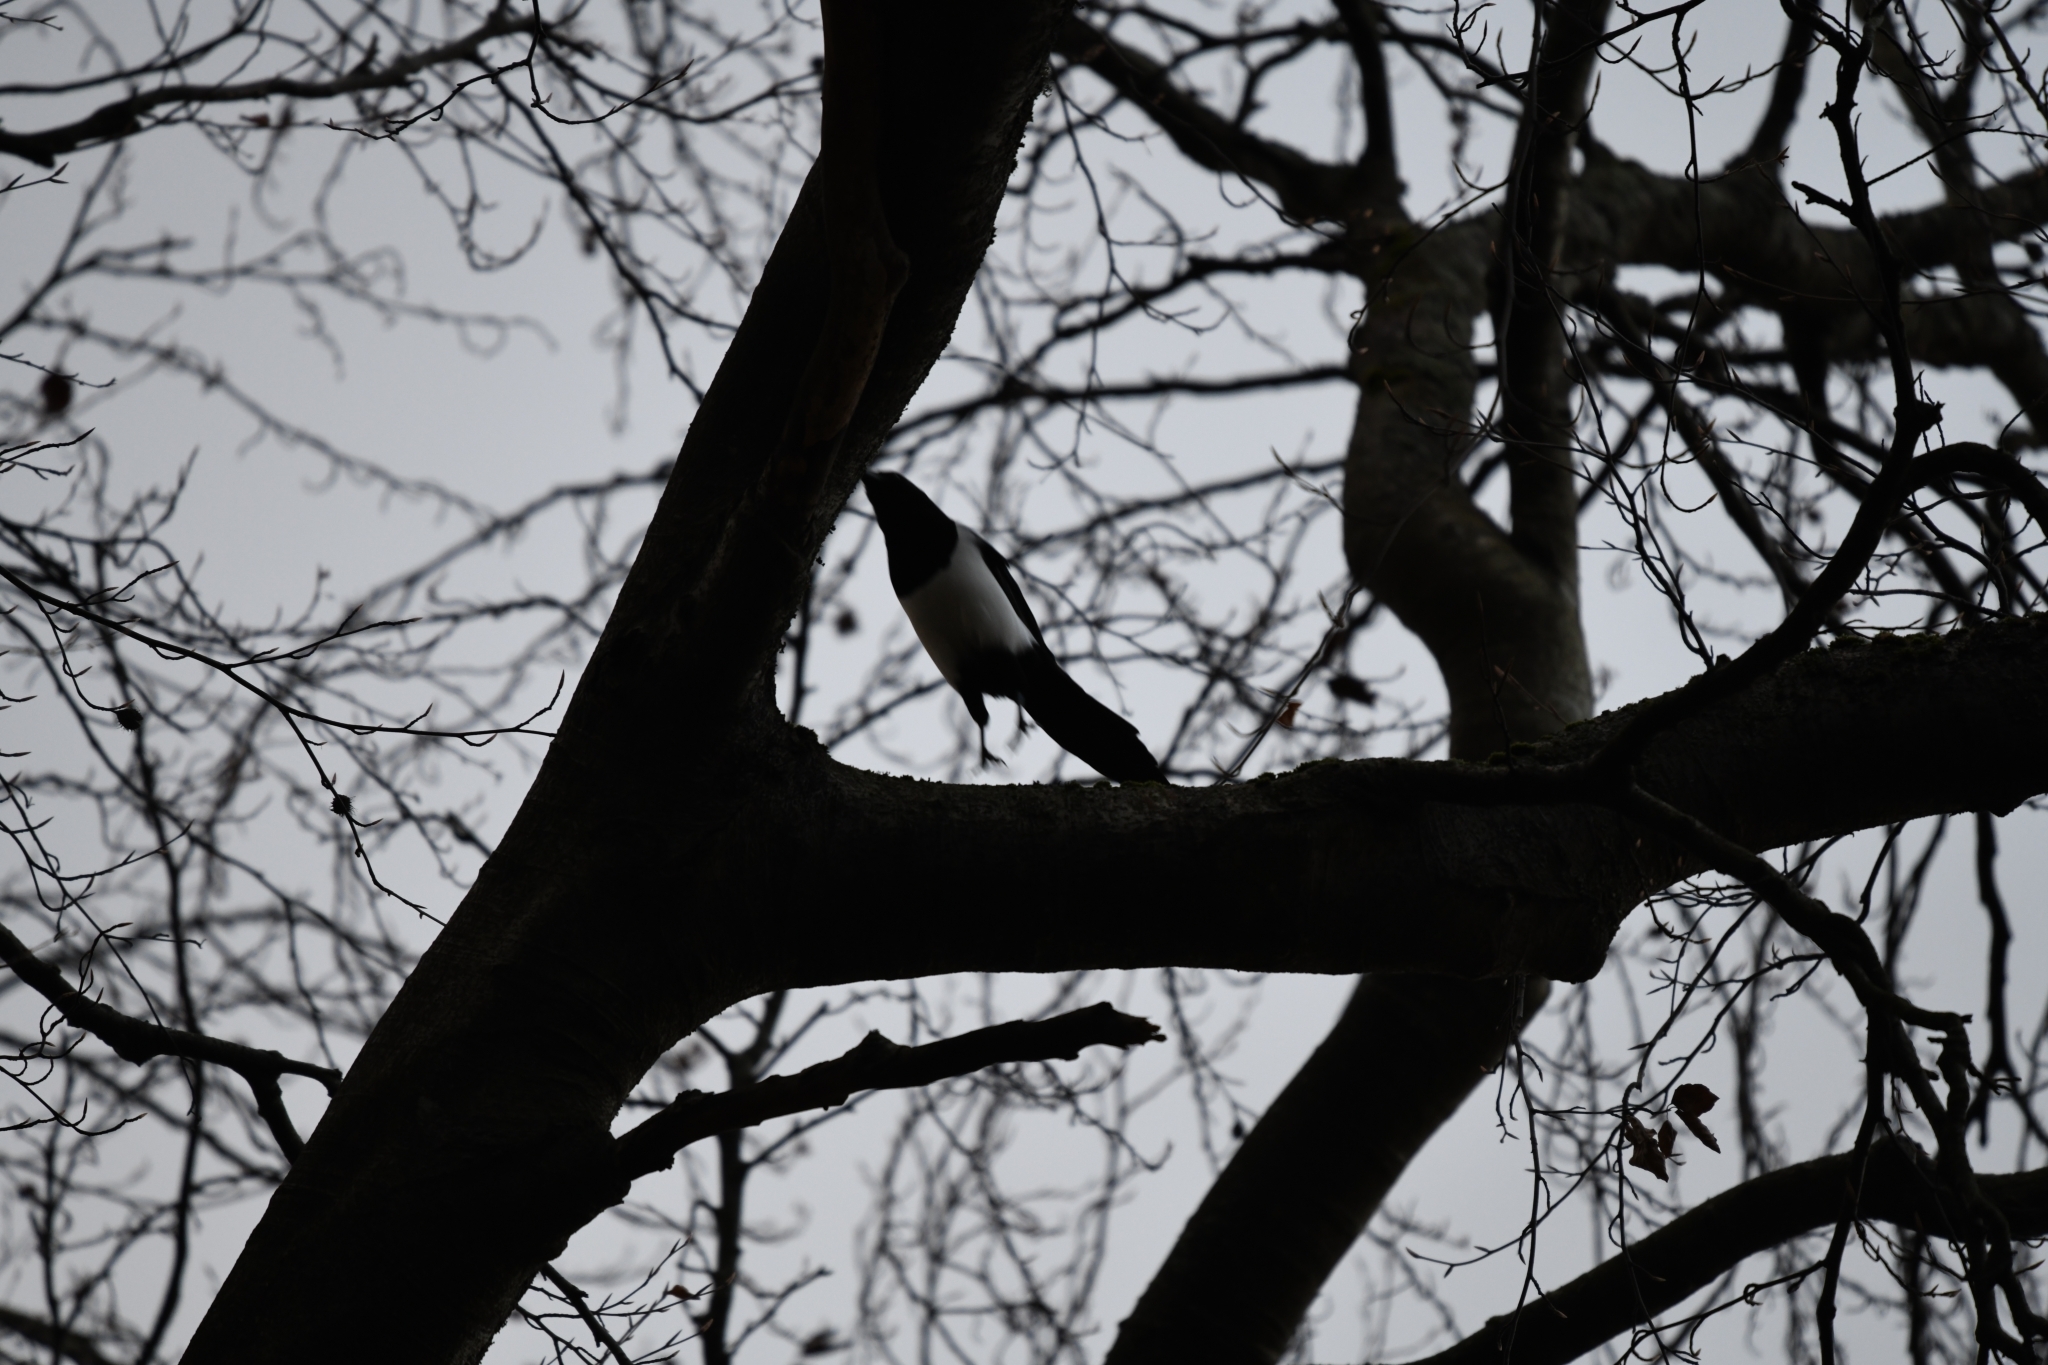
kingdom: Animalia
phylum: Chordata
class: Aves
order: Passeriformes
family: Corvidae
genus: Pica
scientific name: Pica pica
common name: Eurasian magpie
